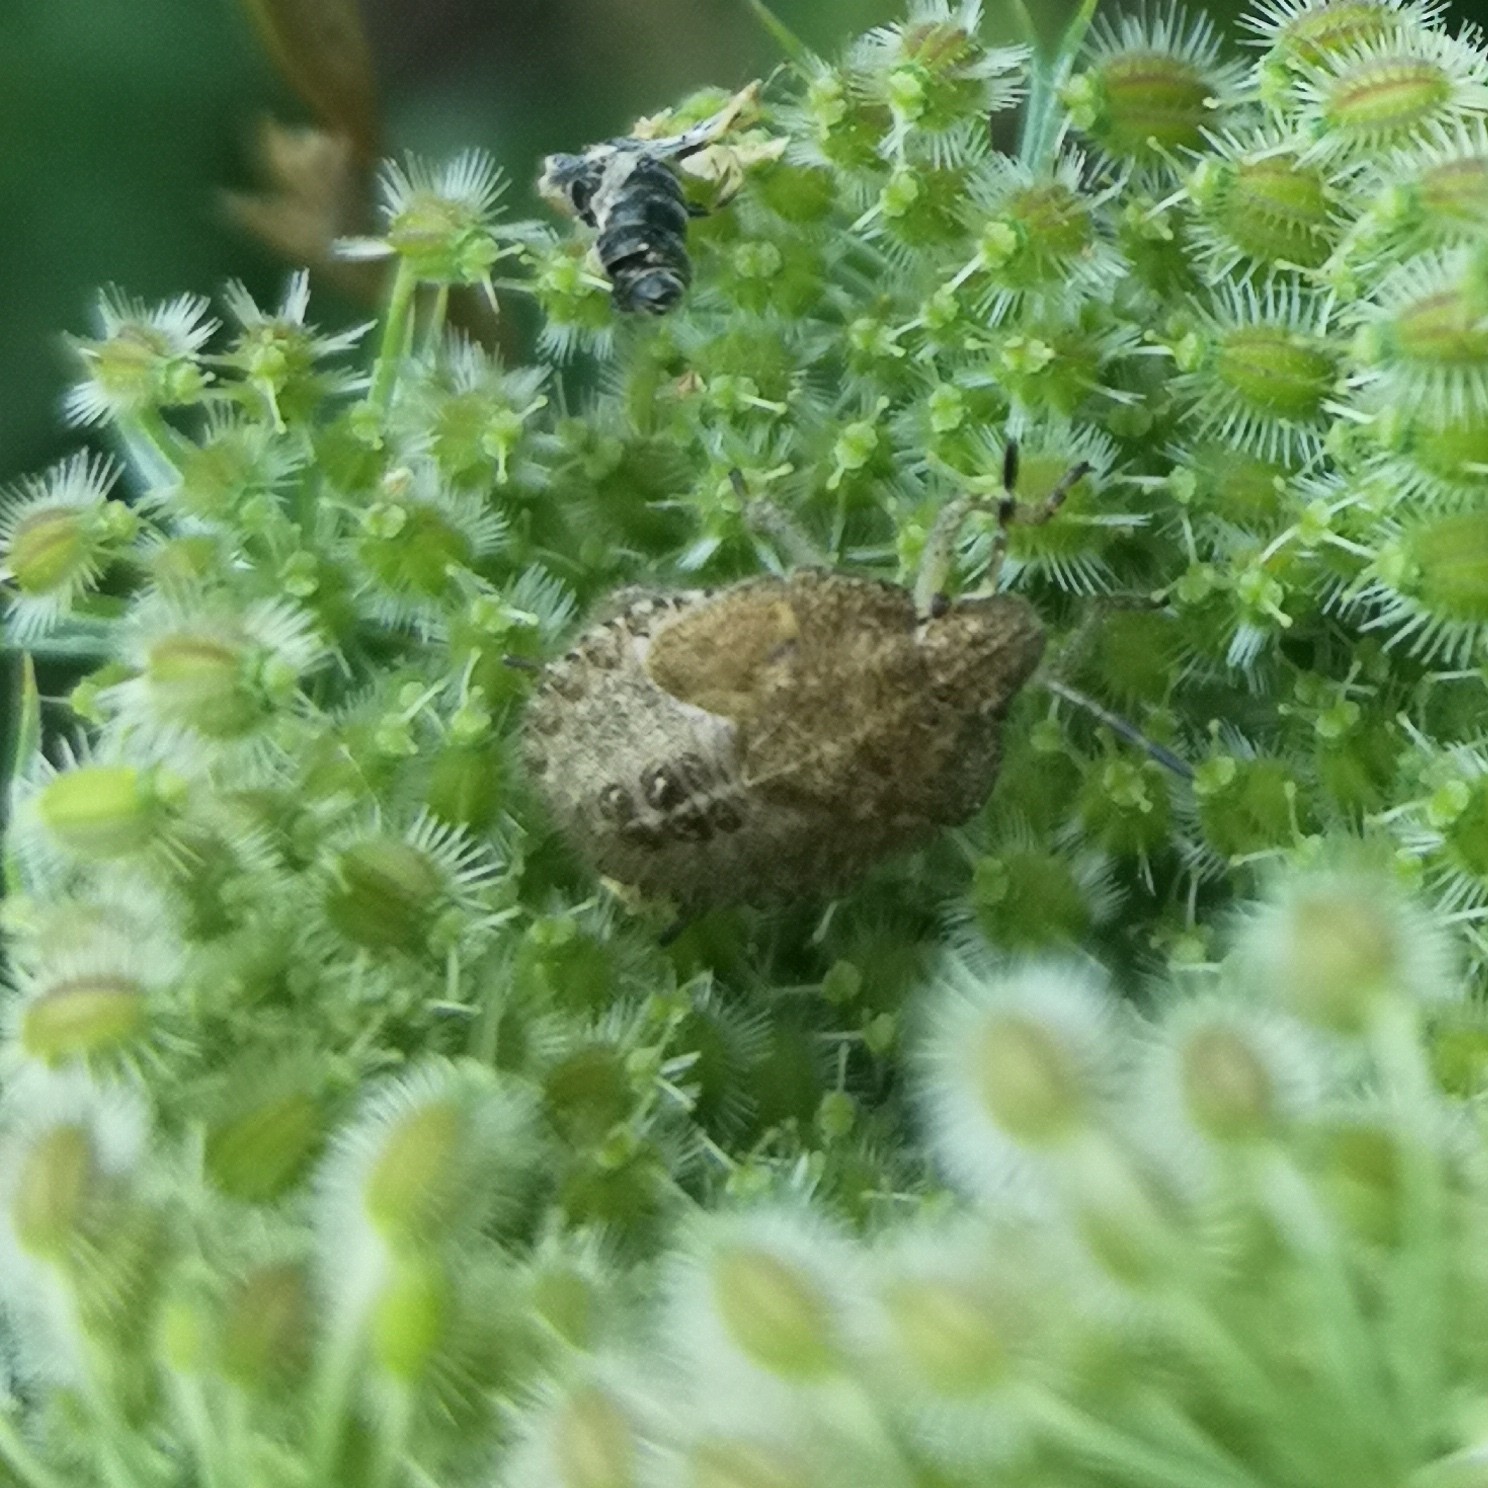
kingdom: Animalia
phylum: Arthropoda
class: Insecta
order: Hemiptera
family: Pentatomidae
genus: Dolycoris
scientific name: Dolycoris baccarum
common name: Sloe bug
